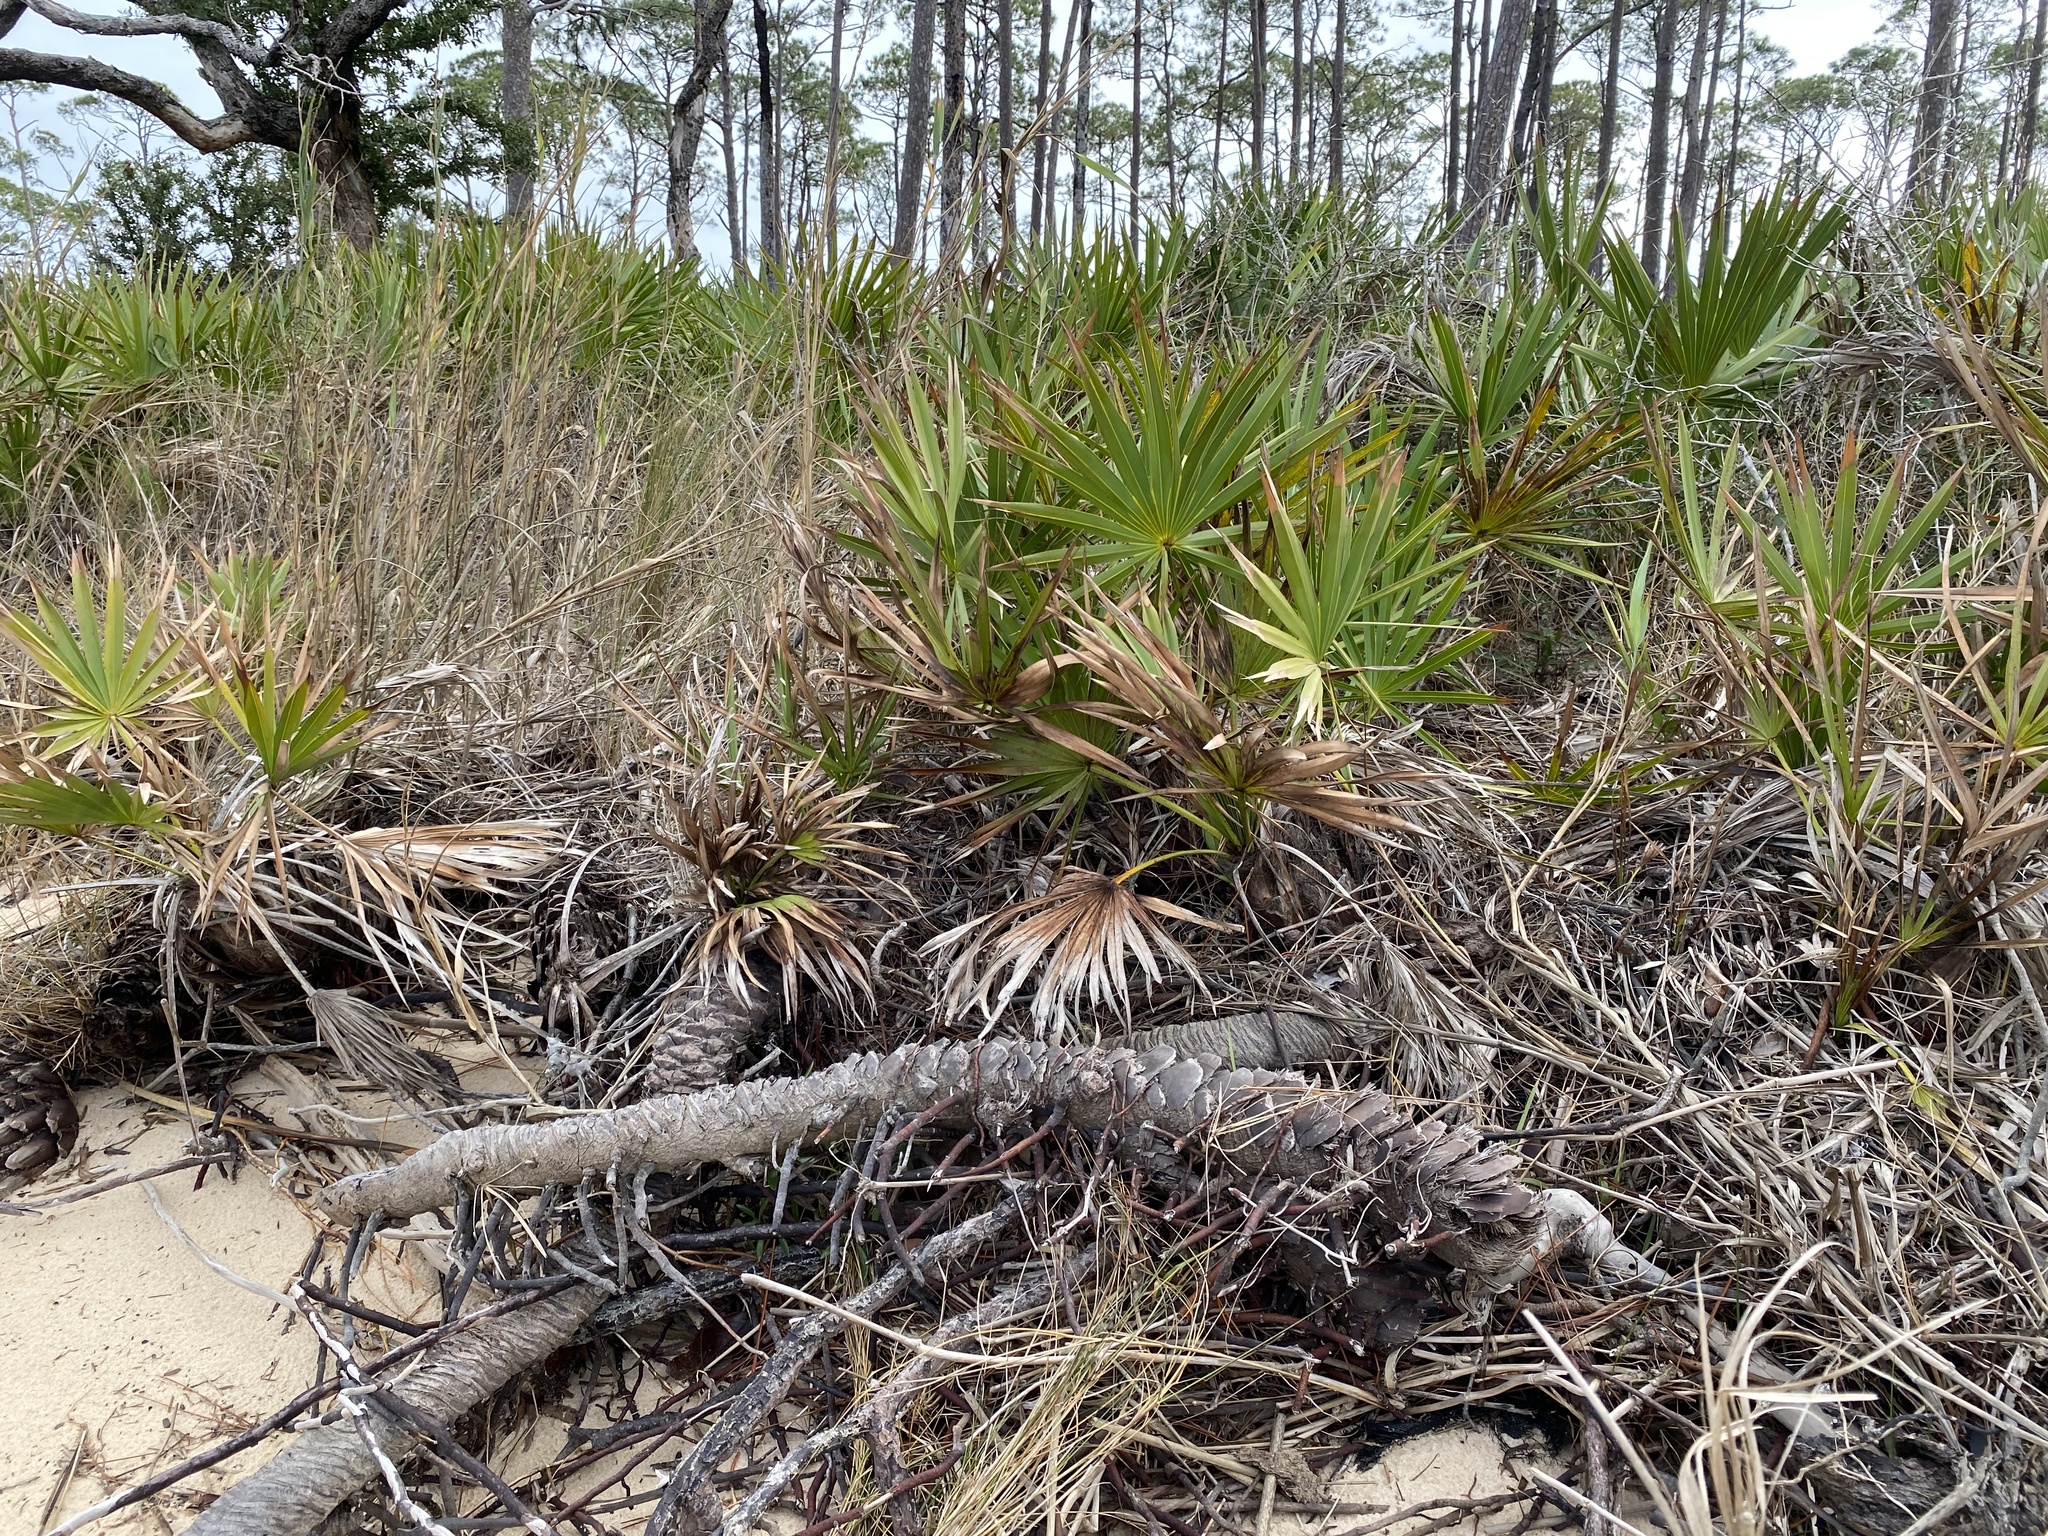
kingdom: Plantae
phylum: Tracheophyta
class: Liliopsida
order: Arecales
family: Arecaceae
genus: Serenoa
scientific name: Serenoa repens
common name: Saw-palmetto
